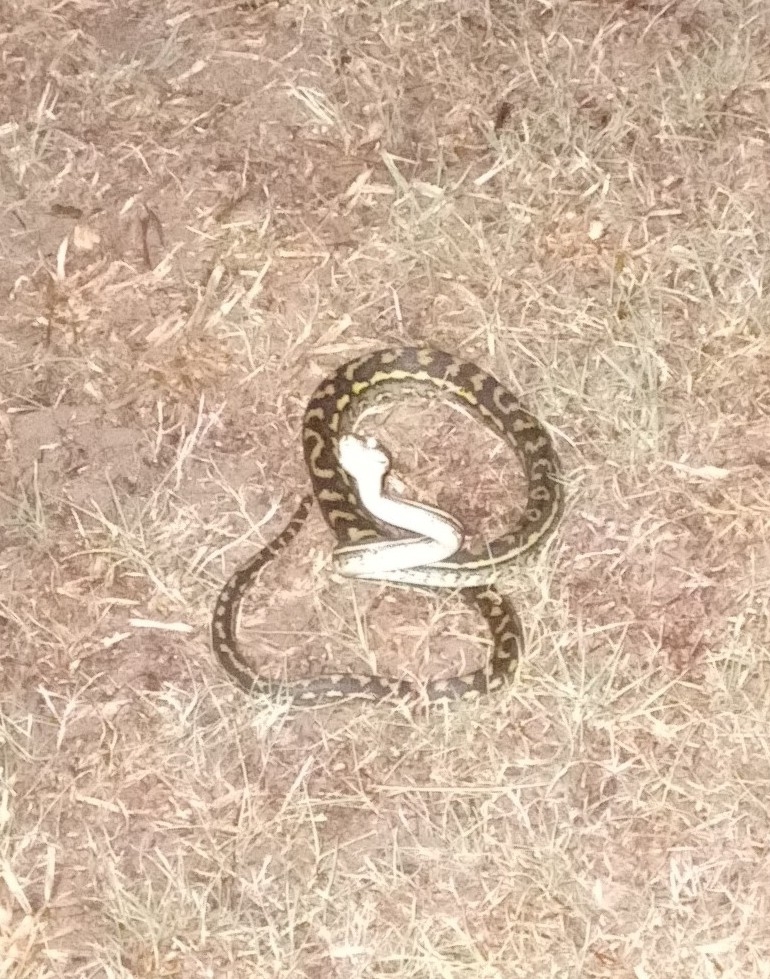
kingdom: Animalia
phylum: Chordata
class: Squamata
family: Pythonidae
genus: Morelia
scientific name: Morelia spilota
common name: Carpet python
